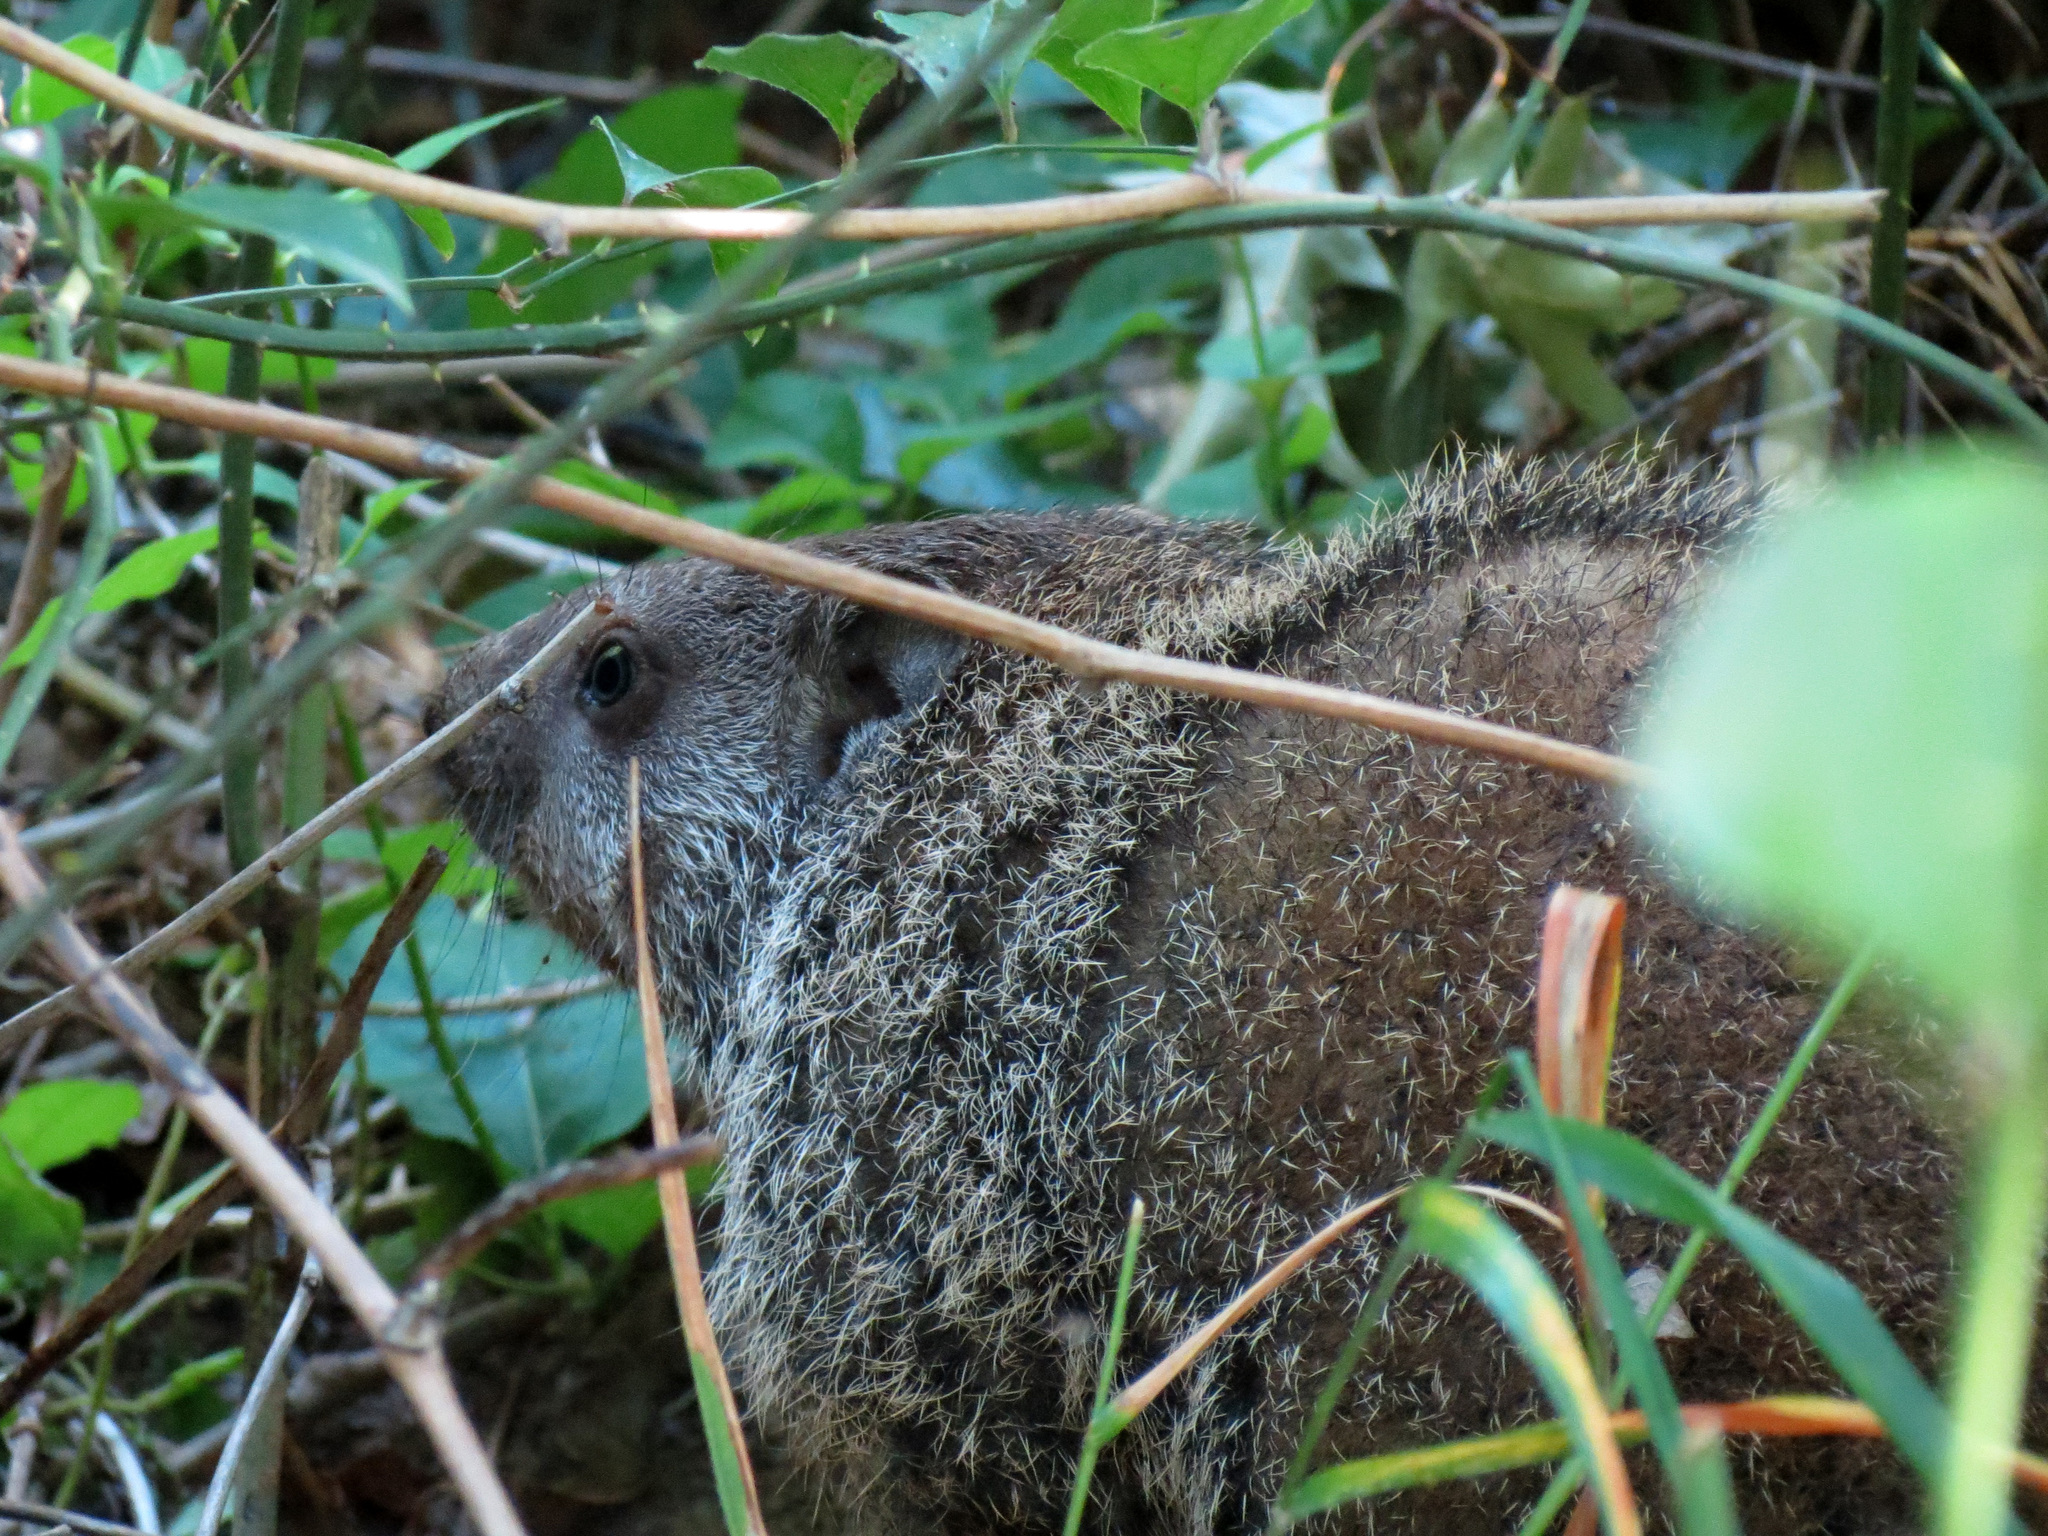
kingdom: Animalia
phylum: Chordata
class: Mammalia
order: Rodentia
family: Sciuridae
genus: Marmota
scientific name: Marmota monax
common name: Groundhog
